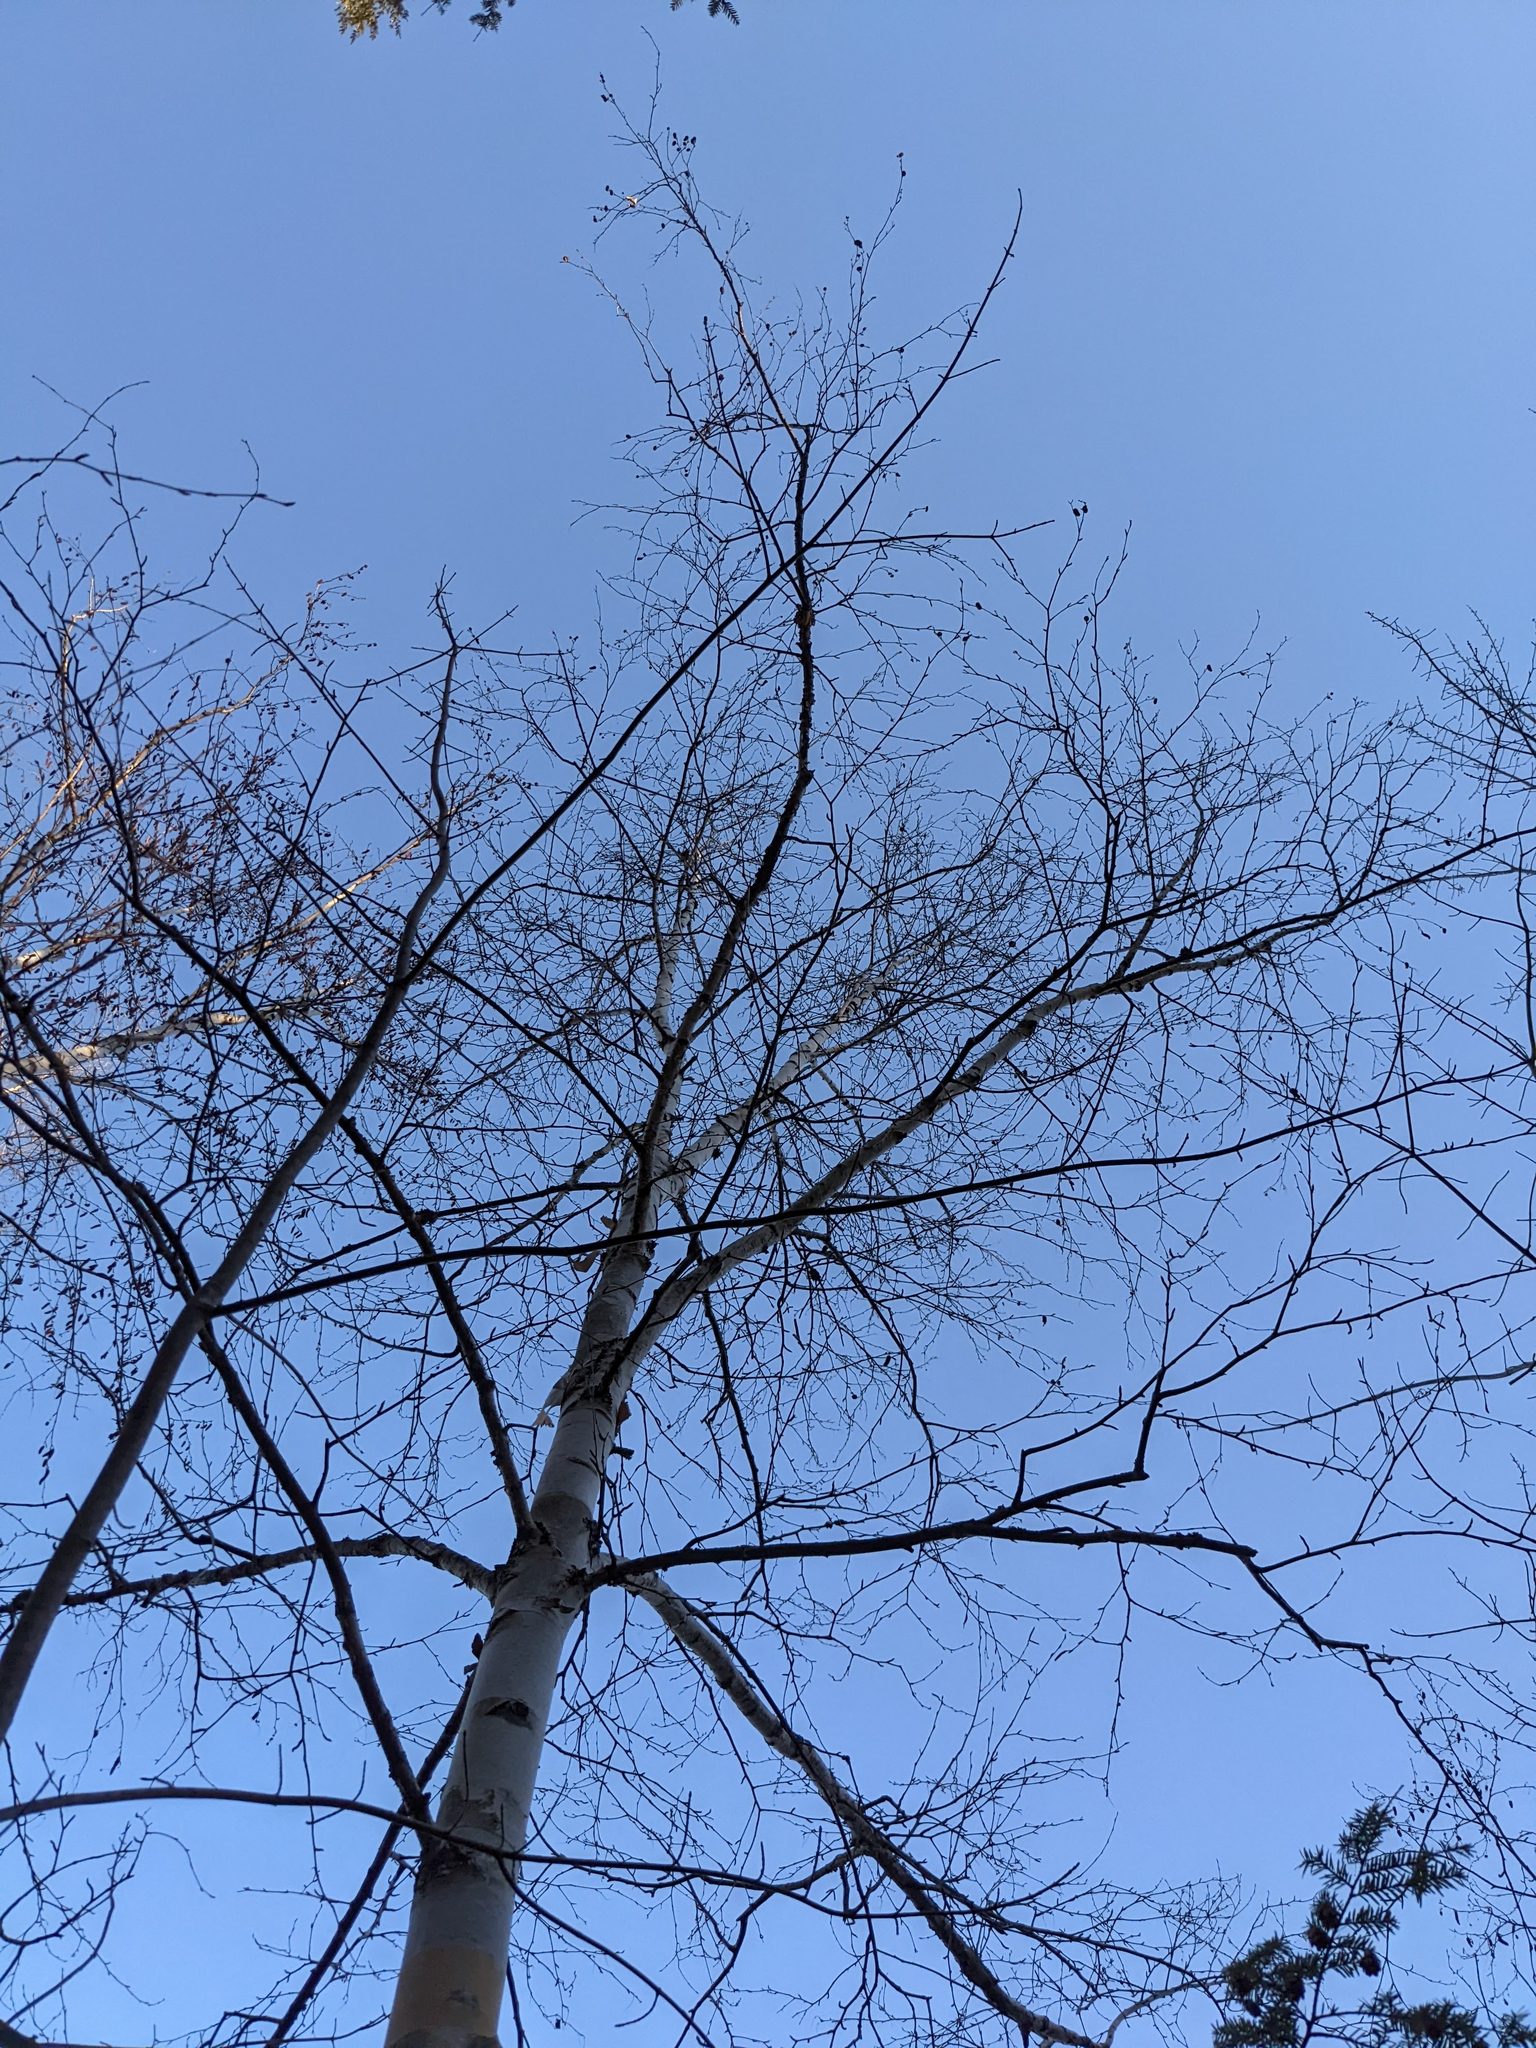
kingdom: Plantae
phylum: Tracheophyta
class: Magnoliopsida
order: Fagales
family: Betulaceae
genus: Betula
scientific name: Betula papyrifera
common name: Paper birch
